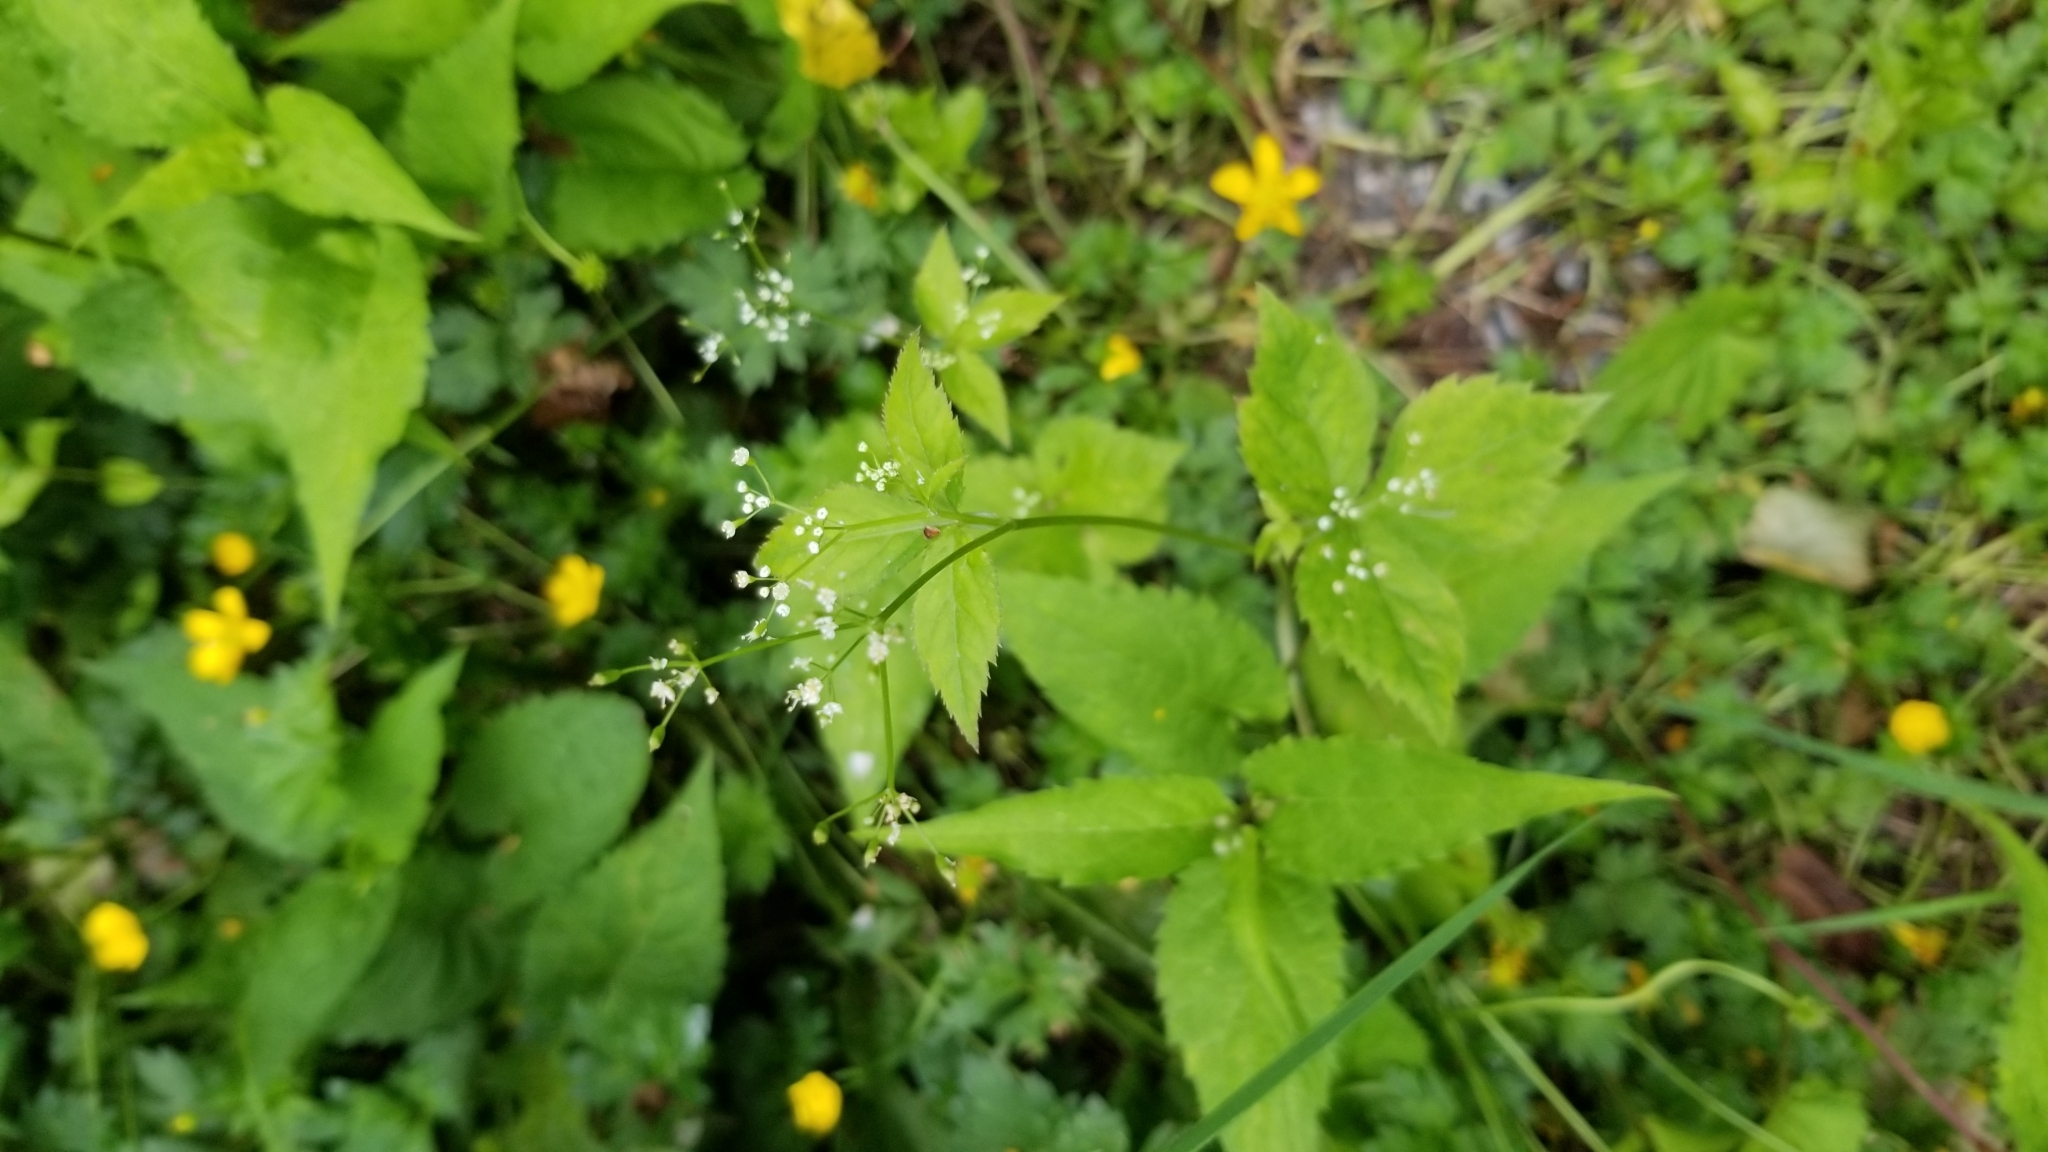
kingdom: Plantae
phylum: Tracheophyta
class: Magnoliopsida
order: Apiales
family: Apiaceae
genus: Cryptotaenia
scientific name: Cryptotaenia canadensis
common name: Honewort
